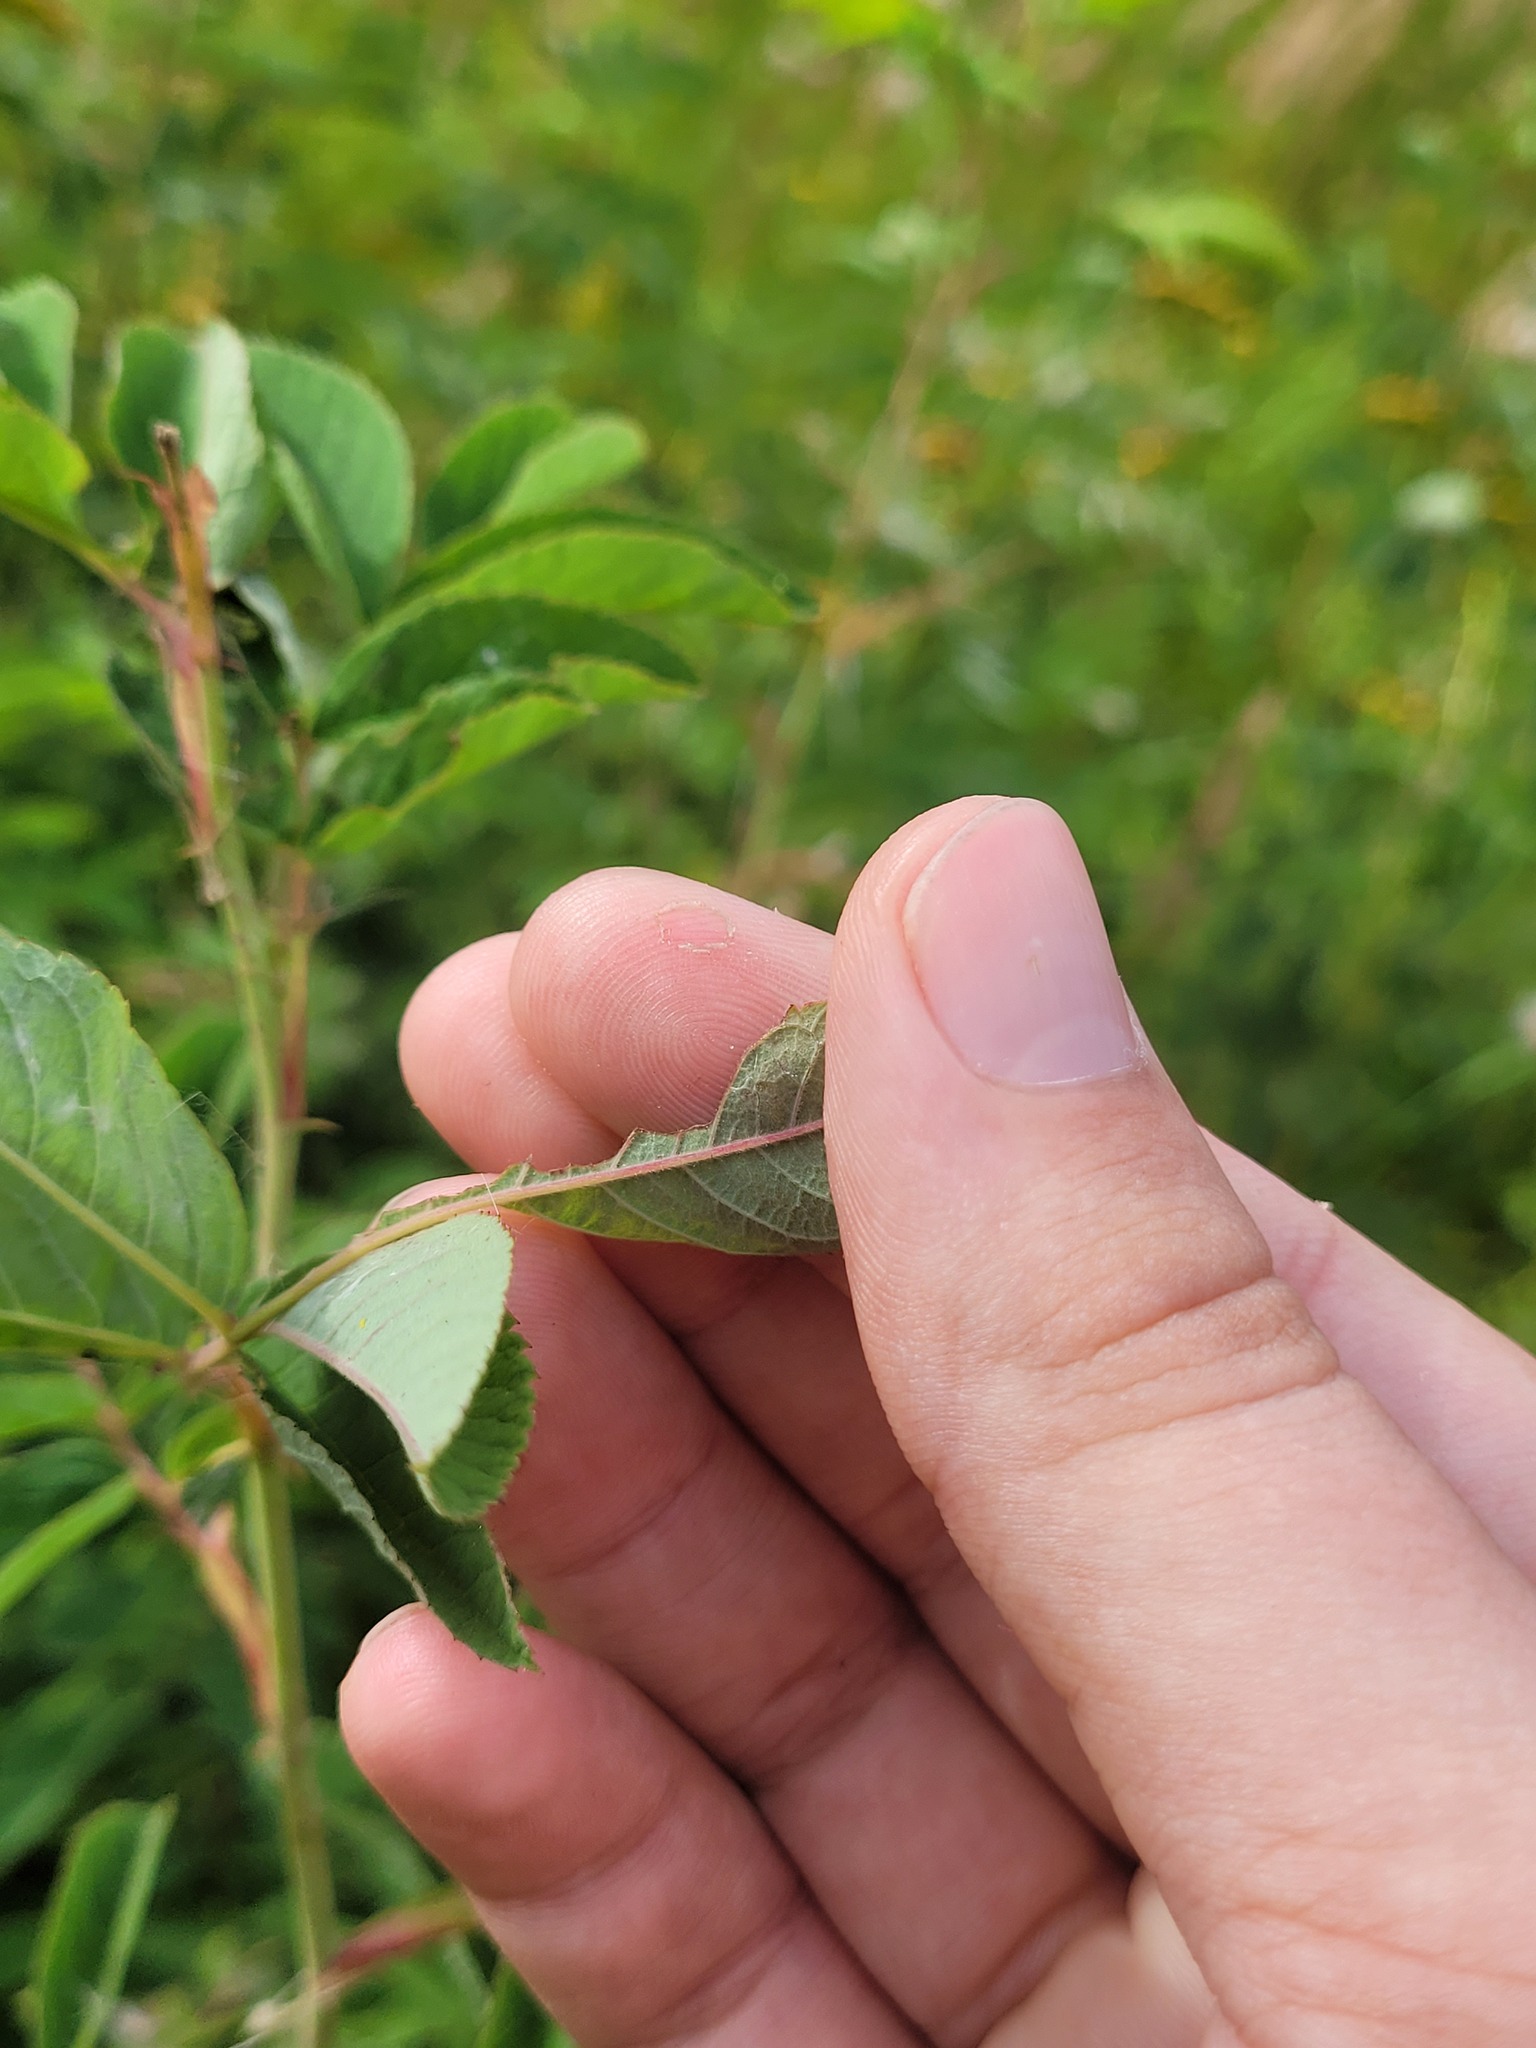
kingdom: Plantae
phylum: Tracheophyta
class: Magnoliopsida
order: Rosales
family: Rosaceae
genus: Rosa
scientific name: Rosa majalis
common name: Cinnamon rose
